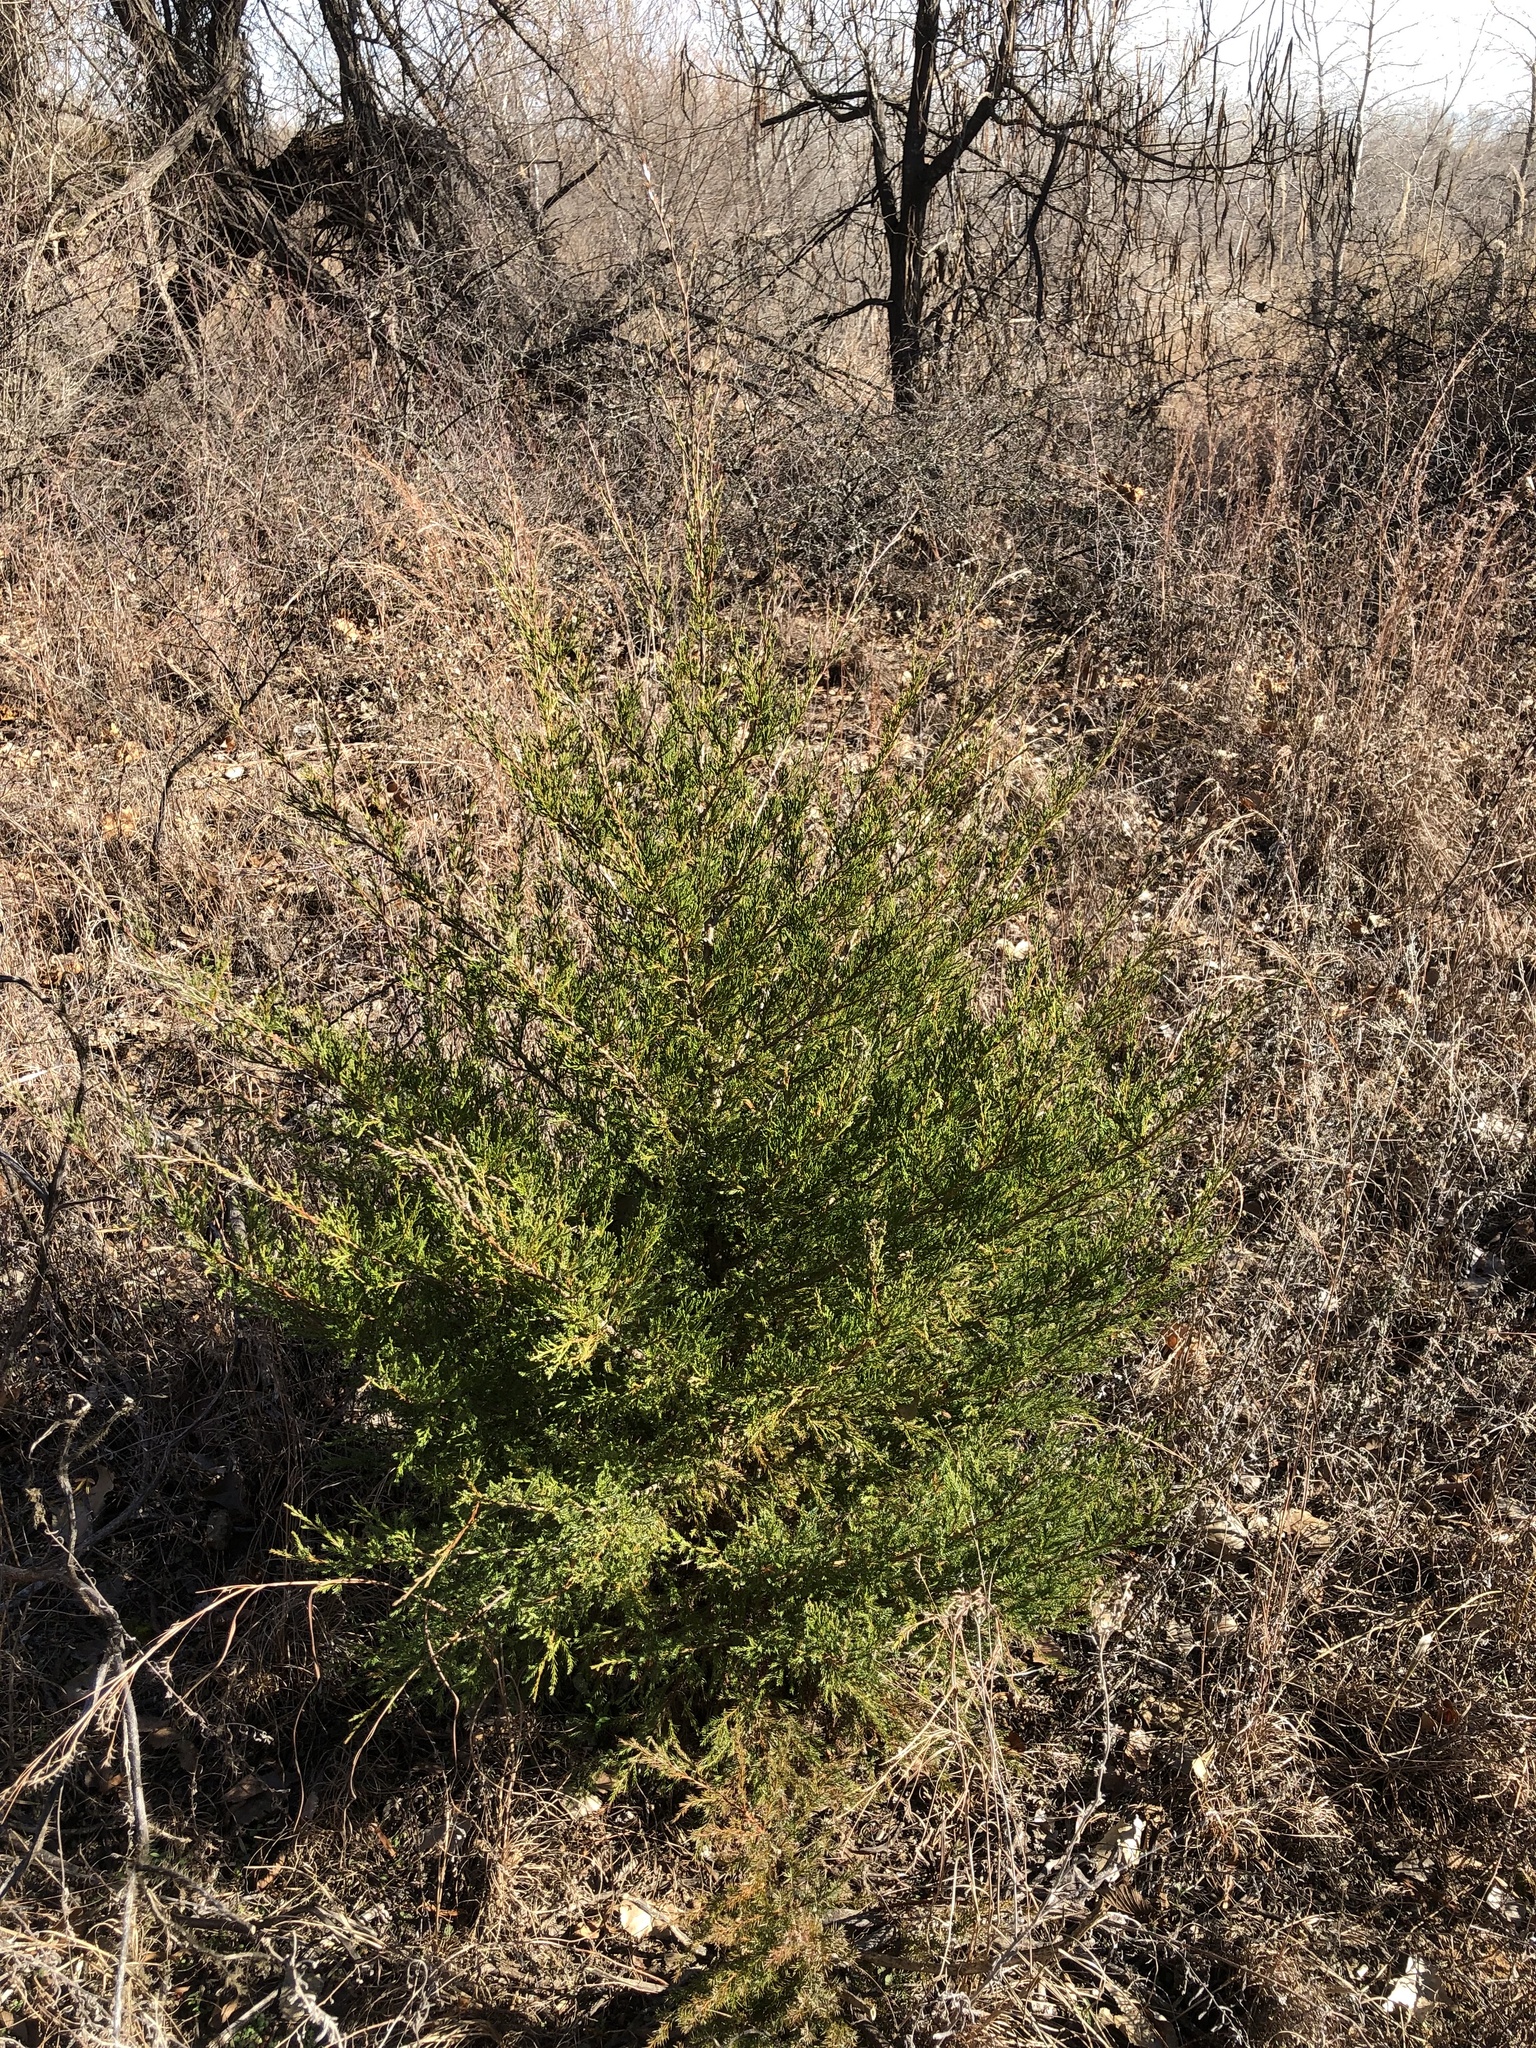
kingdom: Plantae
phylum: Tracheophyta
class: Pinopsida
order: Pinales
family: Cupressaceae
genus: Juniperus
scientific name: Juniperus virginiana
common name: Red juniper
